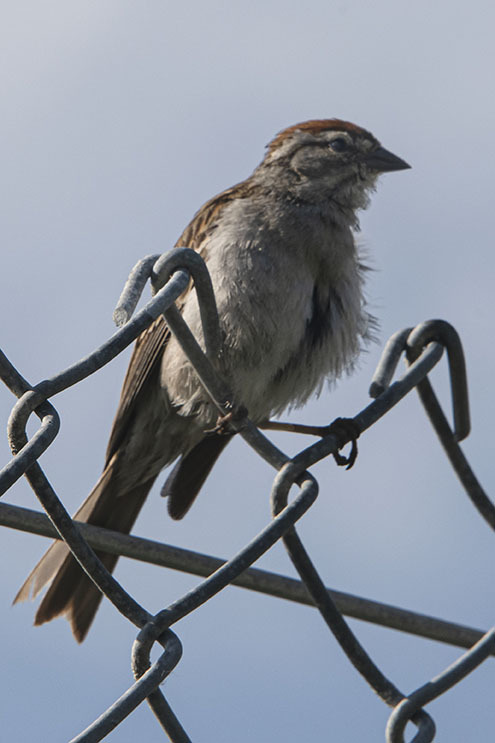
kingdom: Animalia
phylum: Chordata
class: Aves
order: Passeriformes
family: Passerellidae
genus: Spizella
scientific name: Spizella passerina
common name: Chipping sparrow
